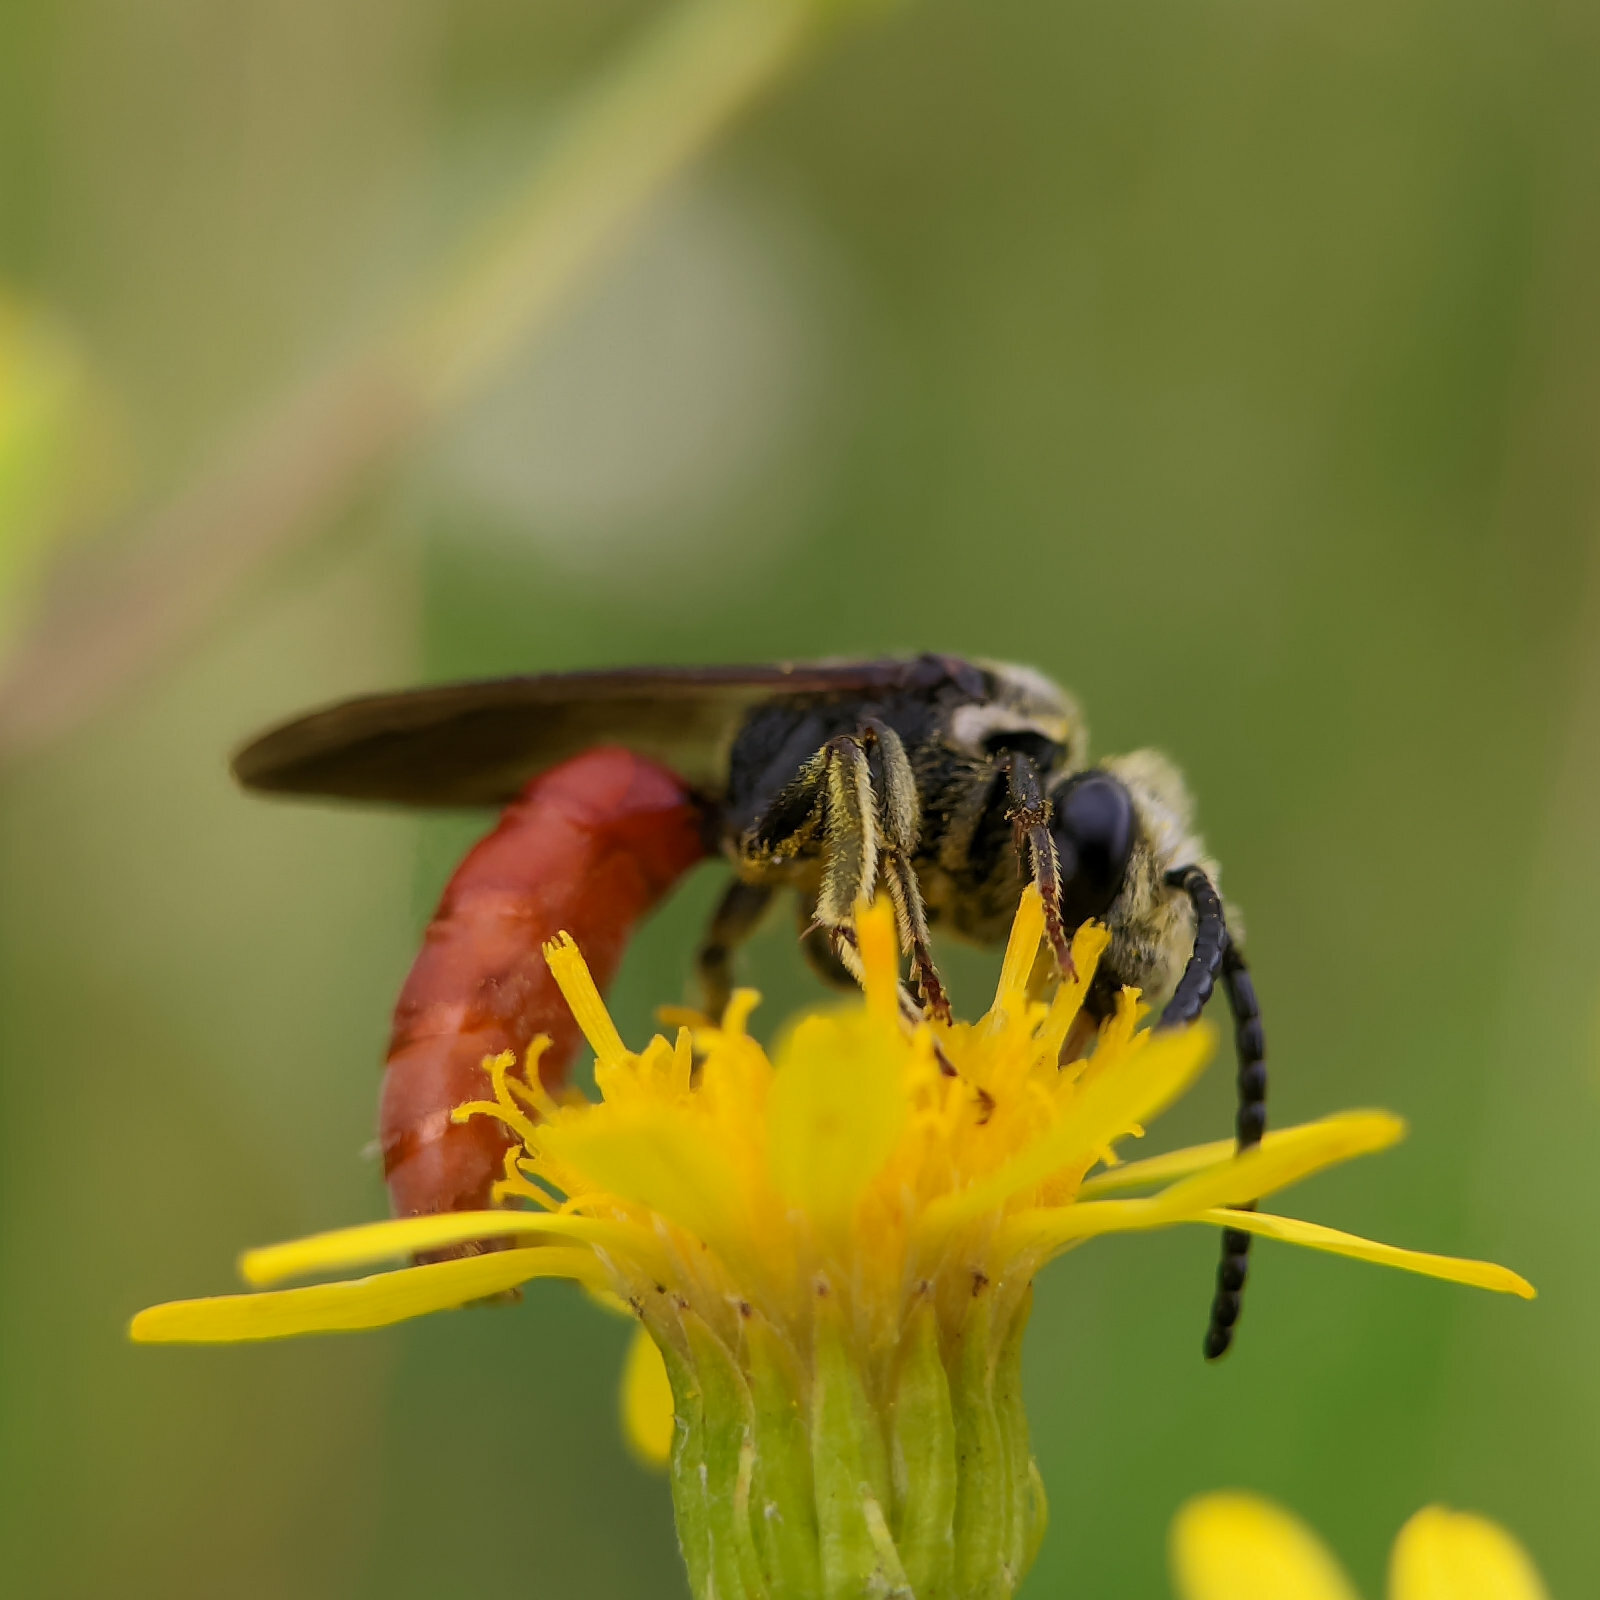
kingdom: Animalia
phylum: Arthropoda
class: Insecta
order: Hymenoptera
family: Halictidae
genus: Sphecodes
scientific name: Sphecodes albilabris
